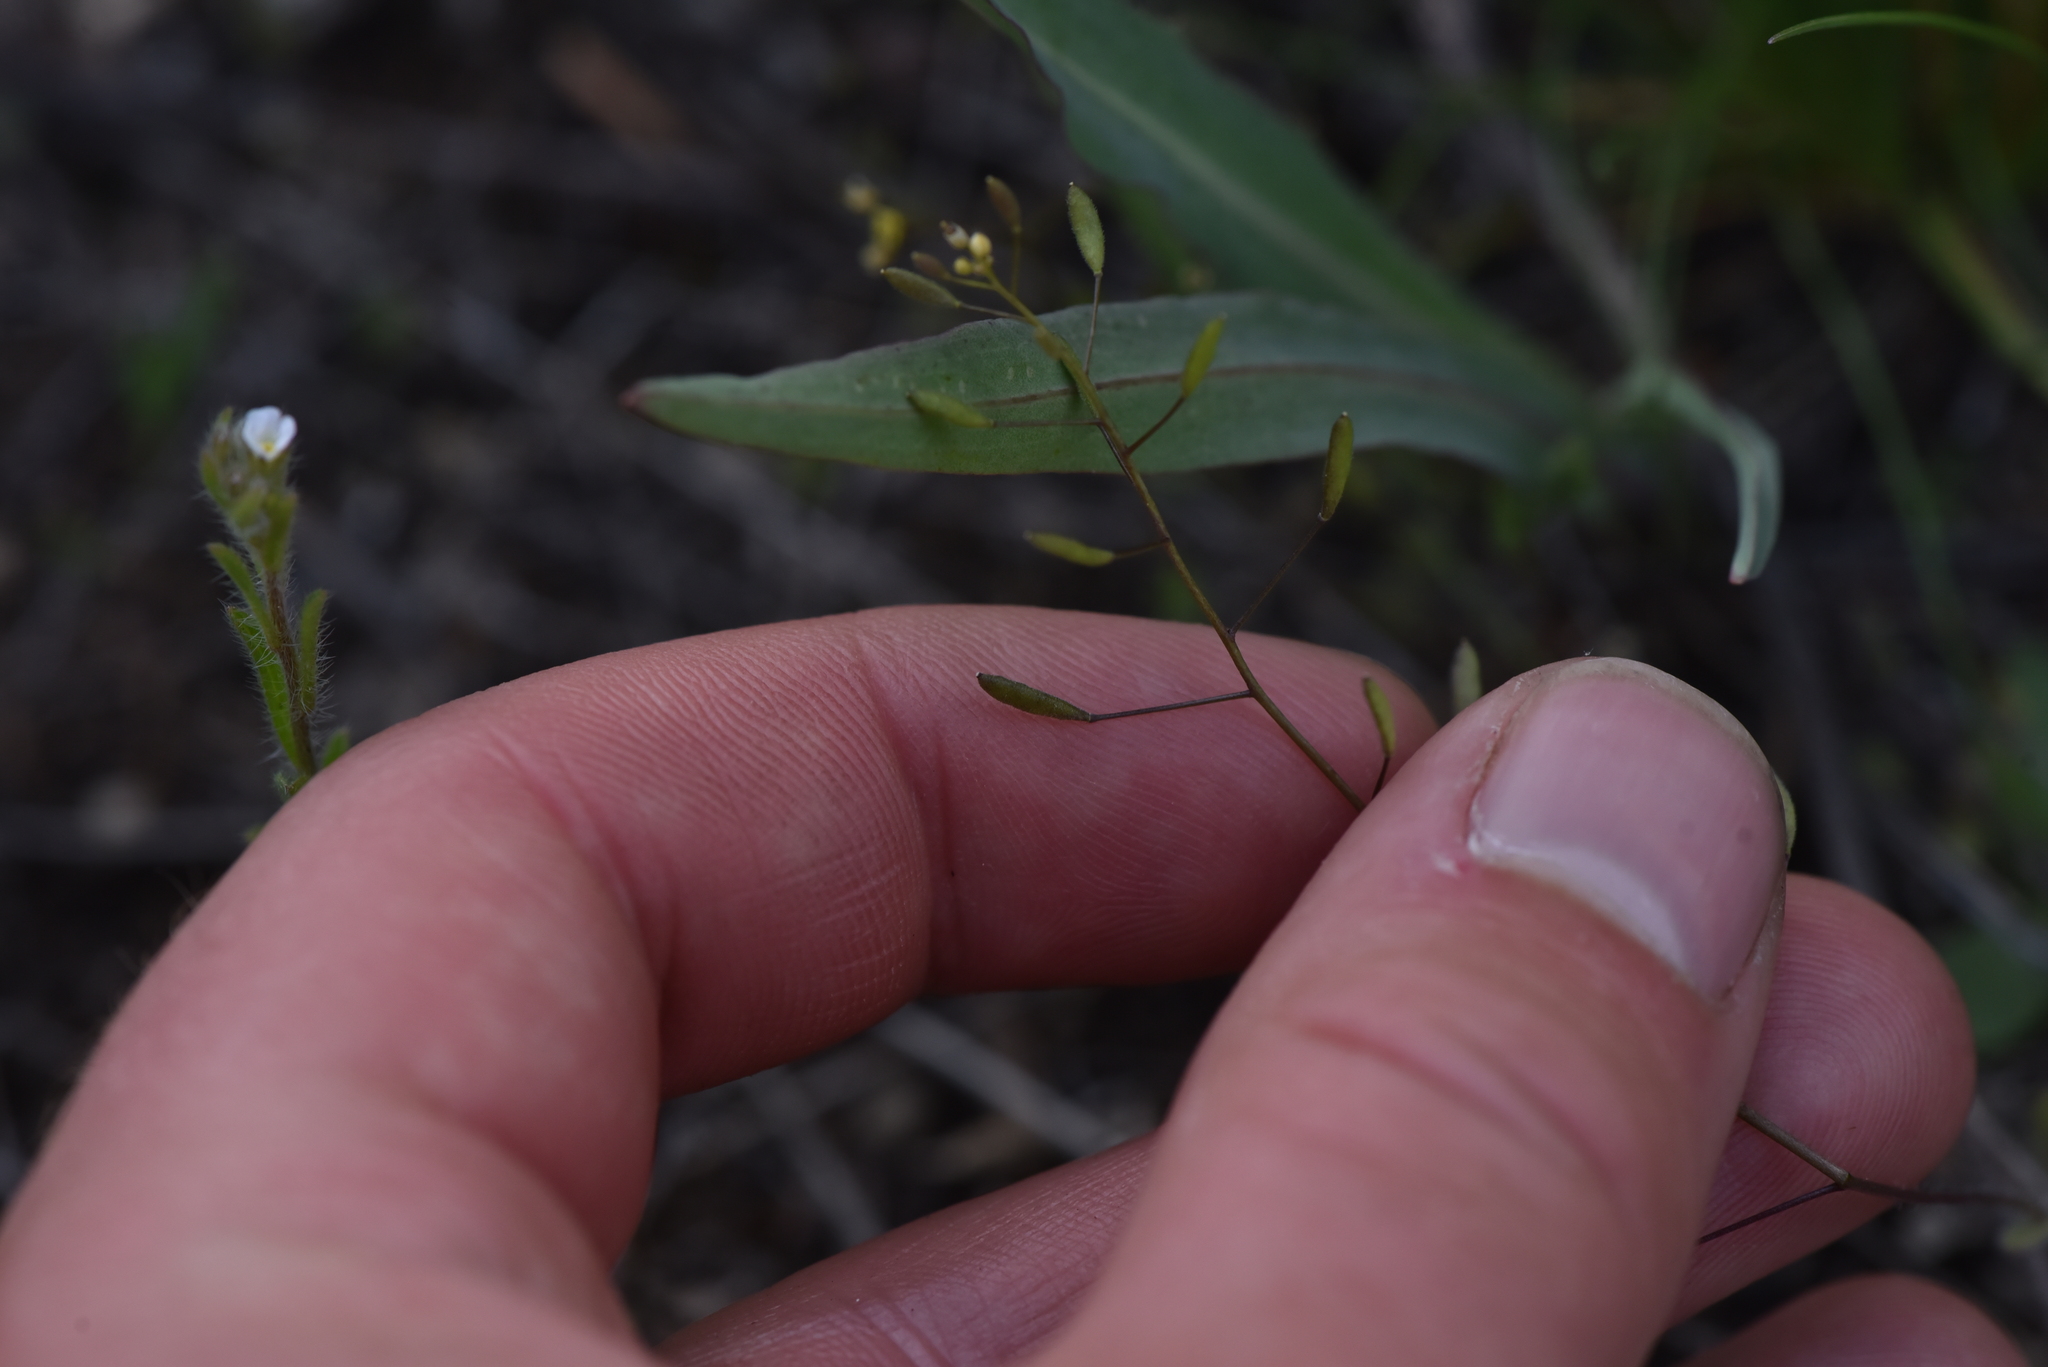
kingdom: Plantae
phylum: Tracheophyta
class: Magnoliopsida
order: Brassicales
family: Brassicaceae
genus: Draba
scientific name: Draba nemorosa
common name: Wood whitlow-grass
